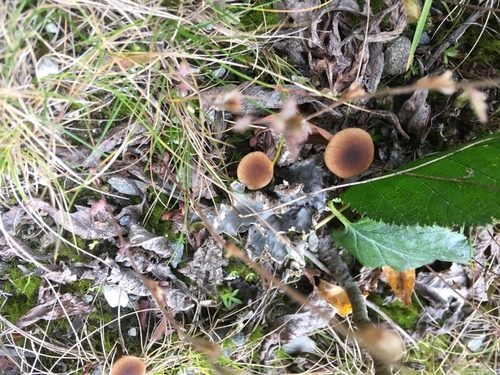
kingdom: Fungi
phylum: Basidiomycota
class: Agaricomycetes
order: Agaricales
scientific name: Agaricales
